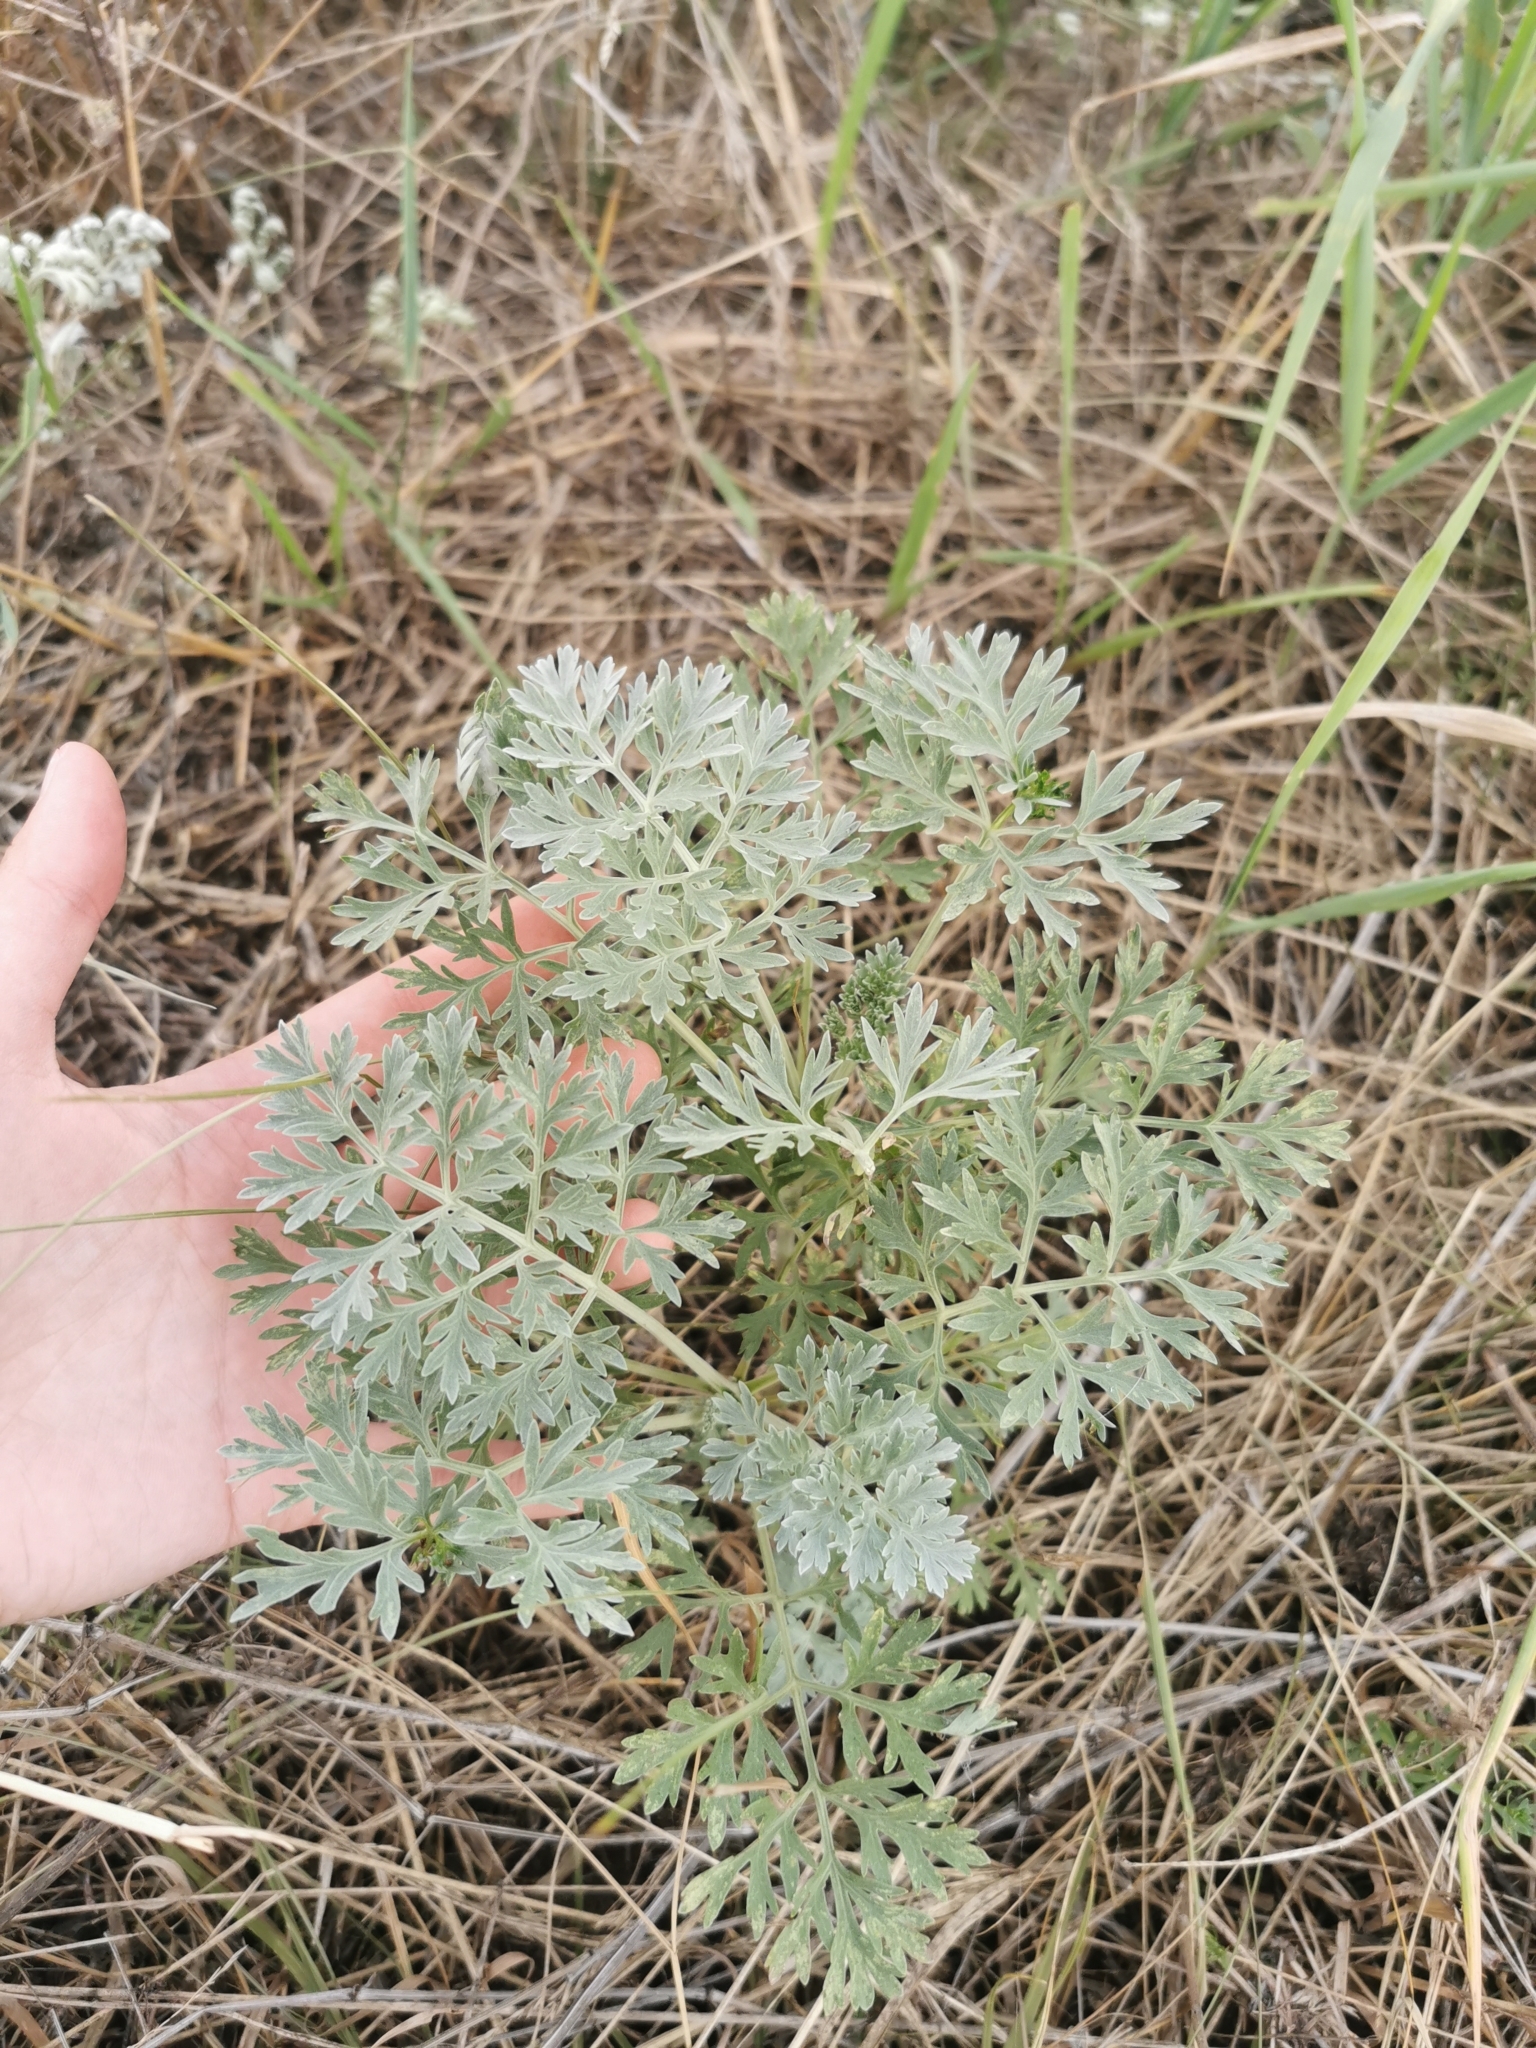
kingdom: Plantae
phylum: Tracheophyta
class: Magnoliopsida
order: Asterales
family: Asteraceae
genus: Artemisia
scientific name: Artemisia absinthium
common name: Wormwood
